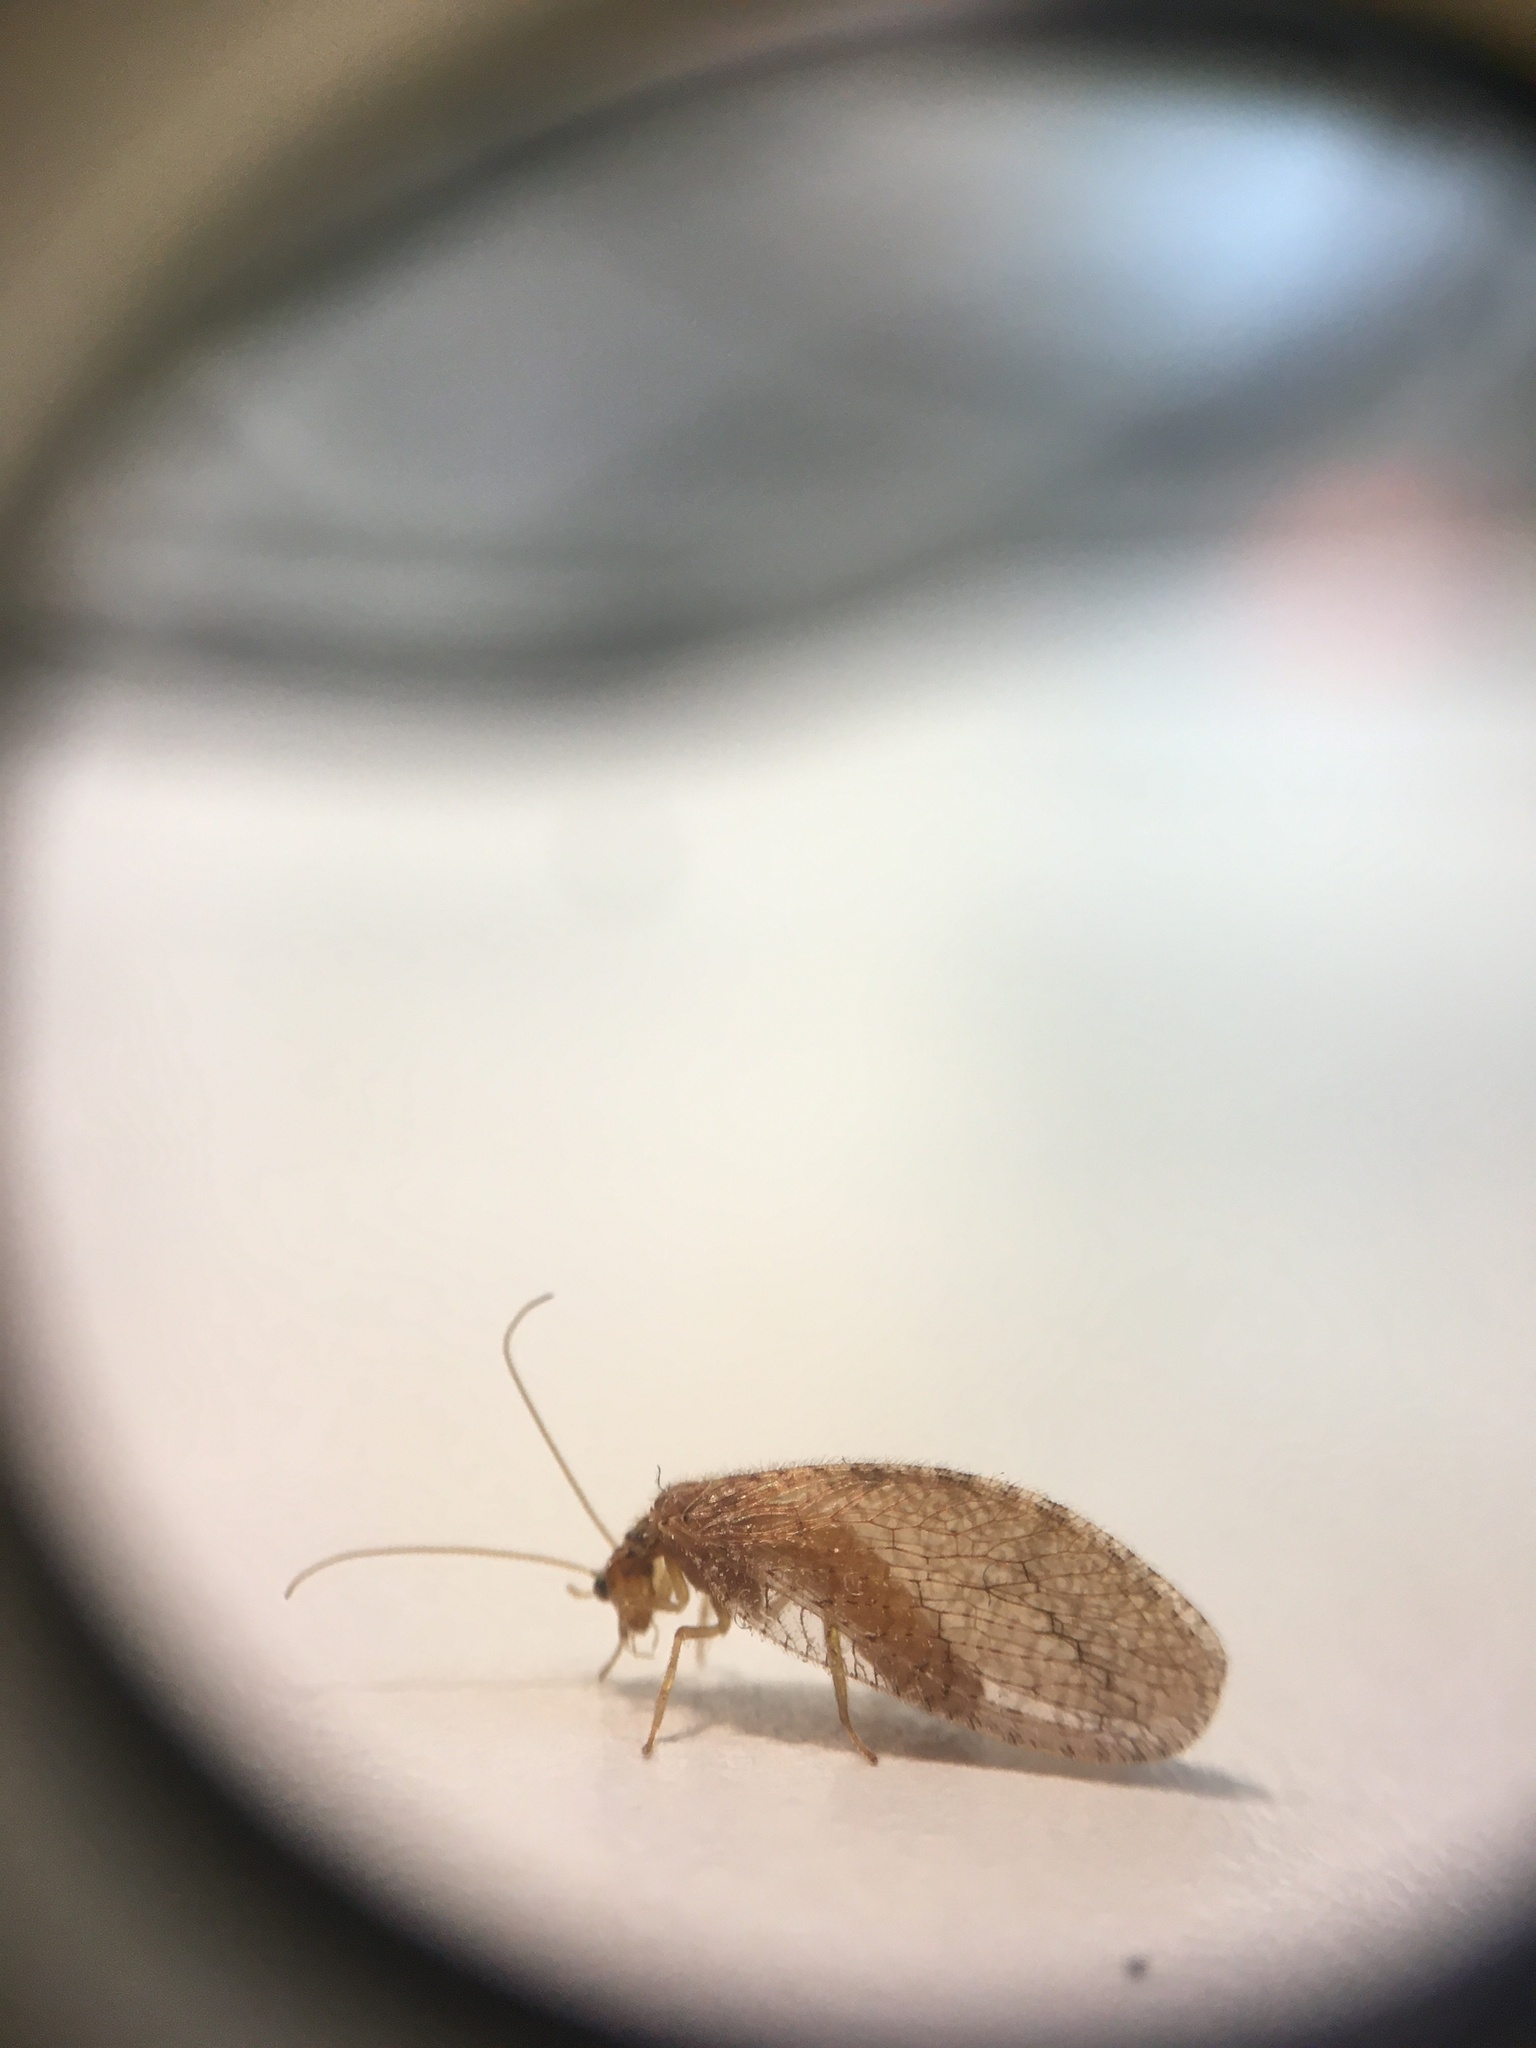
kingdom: Animalia
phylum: Arthropoda
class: Insecta
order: Neuroptera
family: Hemerobiidae
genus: Micromus
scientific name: Micromus posticus
